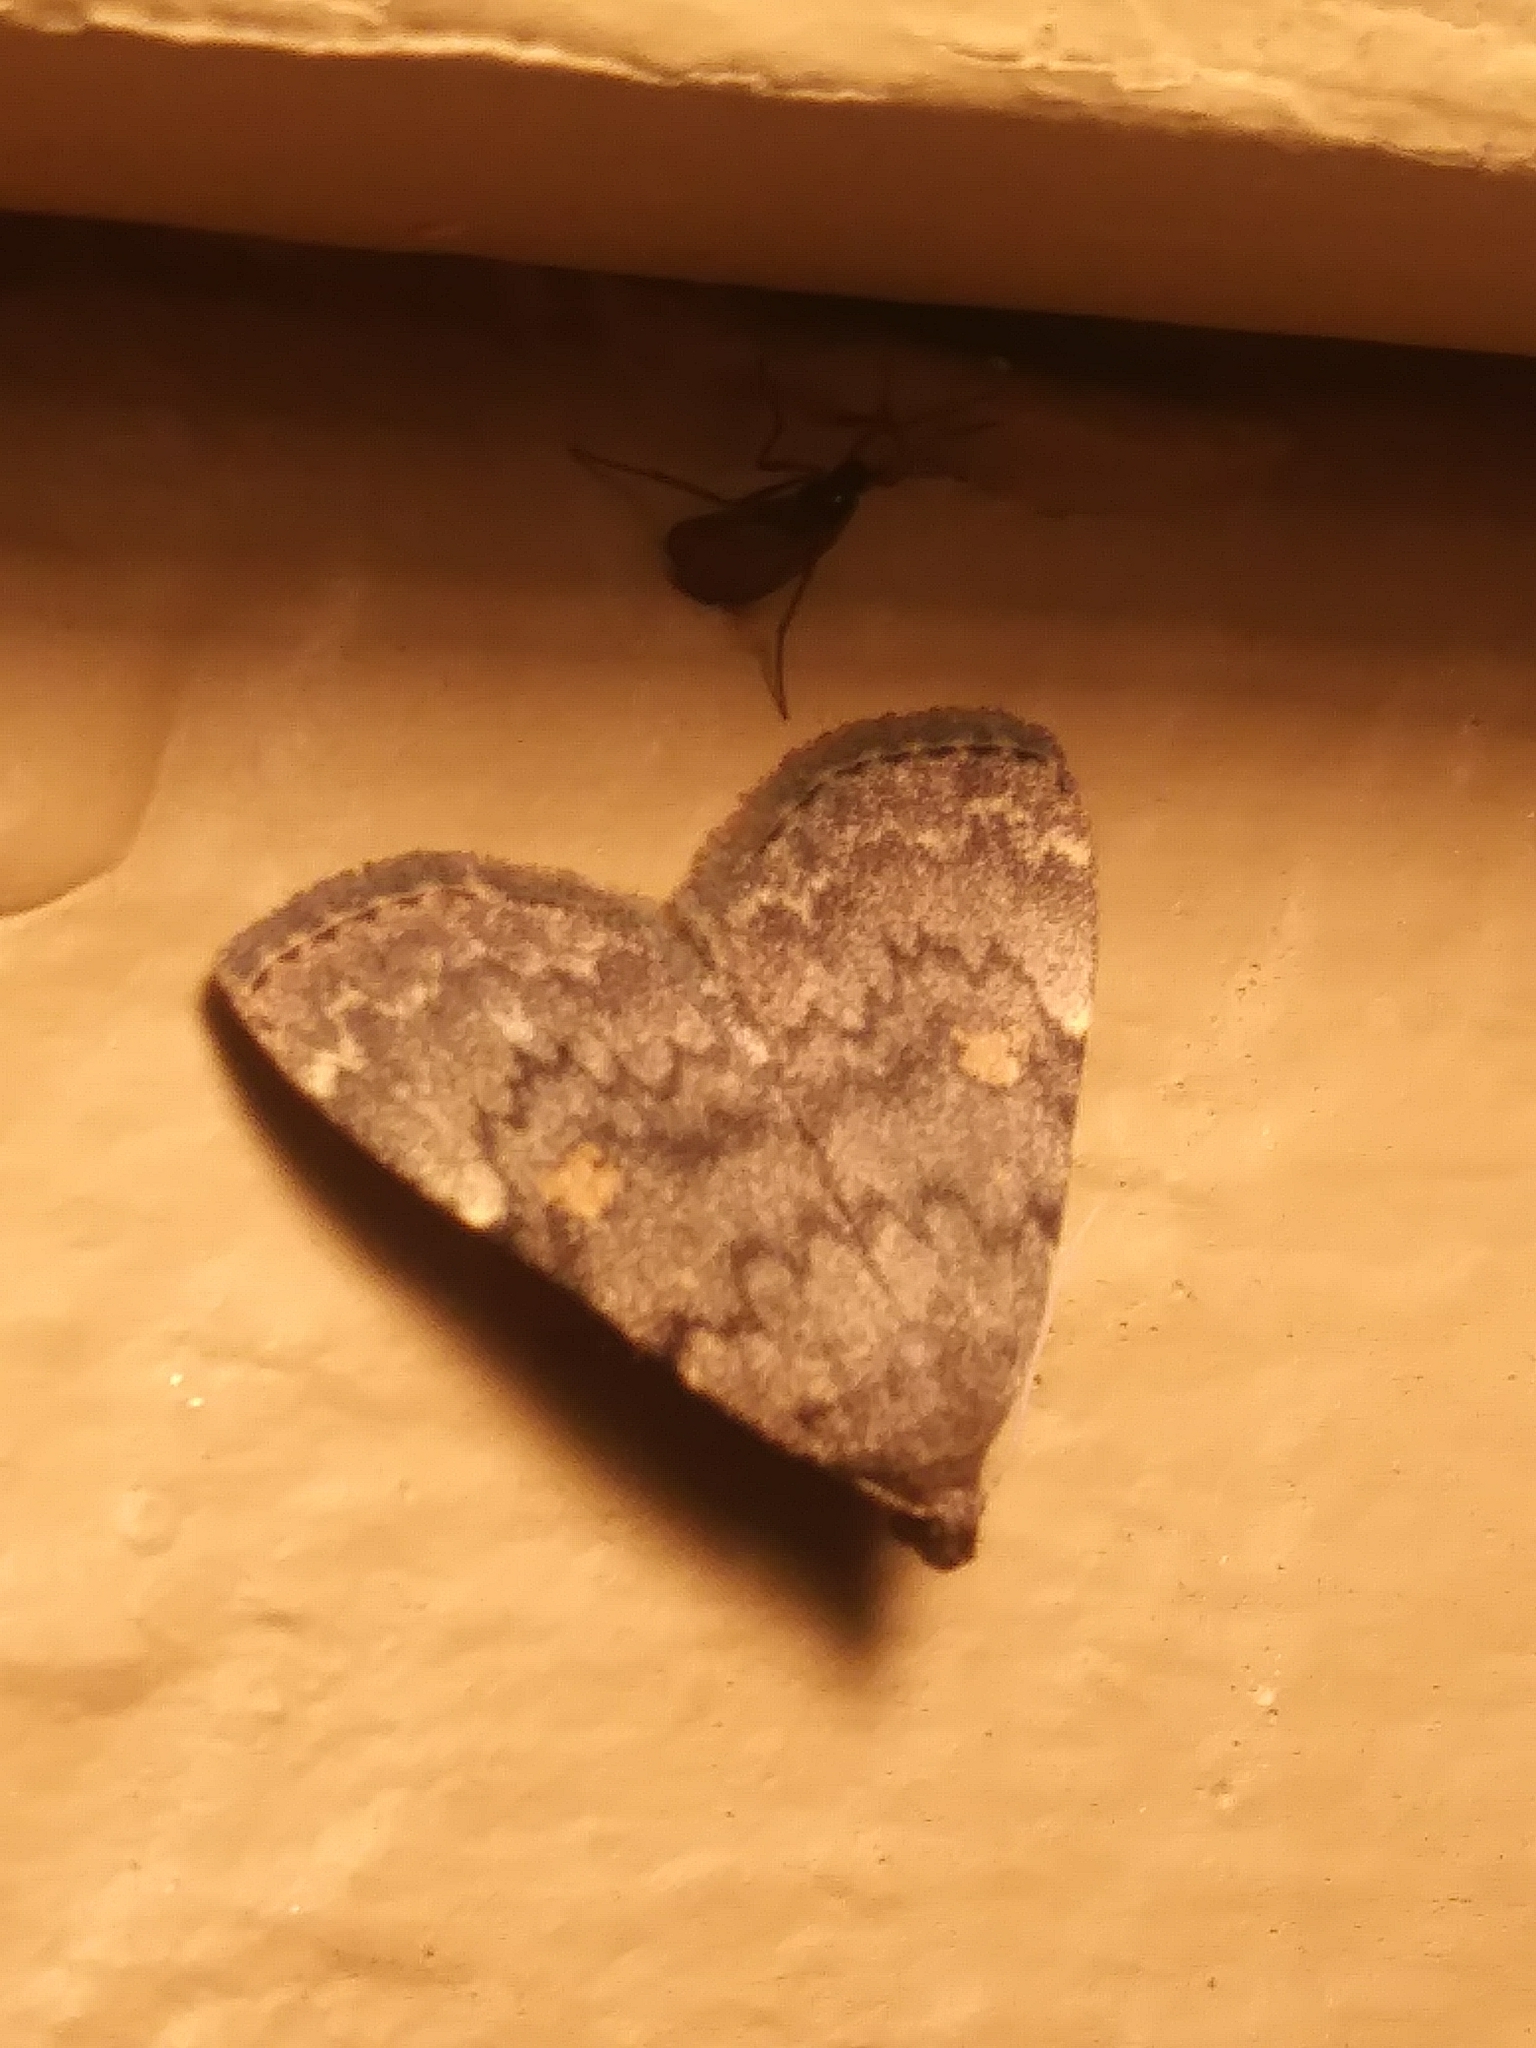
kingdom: Animalia
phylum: Arthropoda
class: Insecta
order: Lepidoptera
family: Erebidae
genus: Idia
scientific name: Idia aemula
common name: Common idia moth
